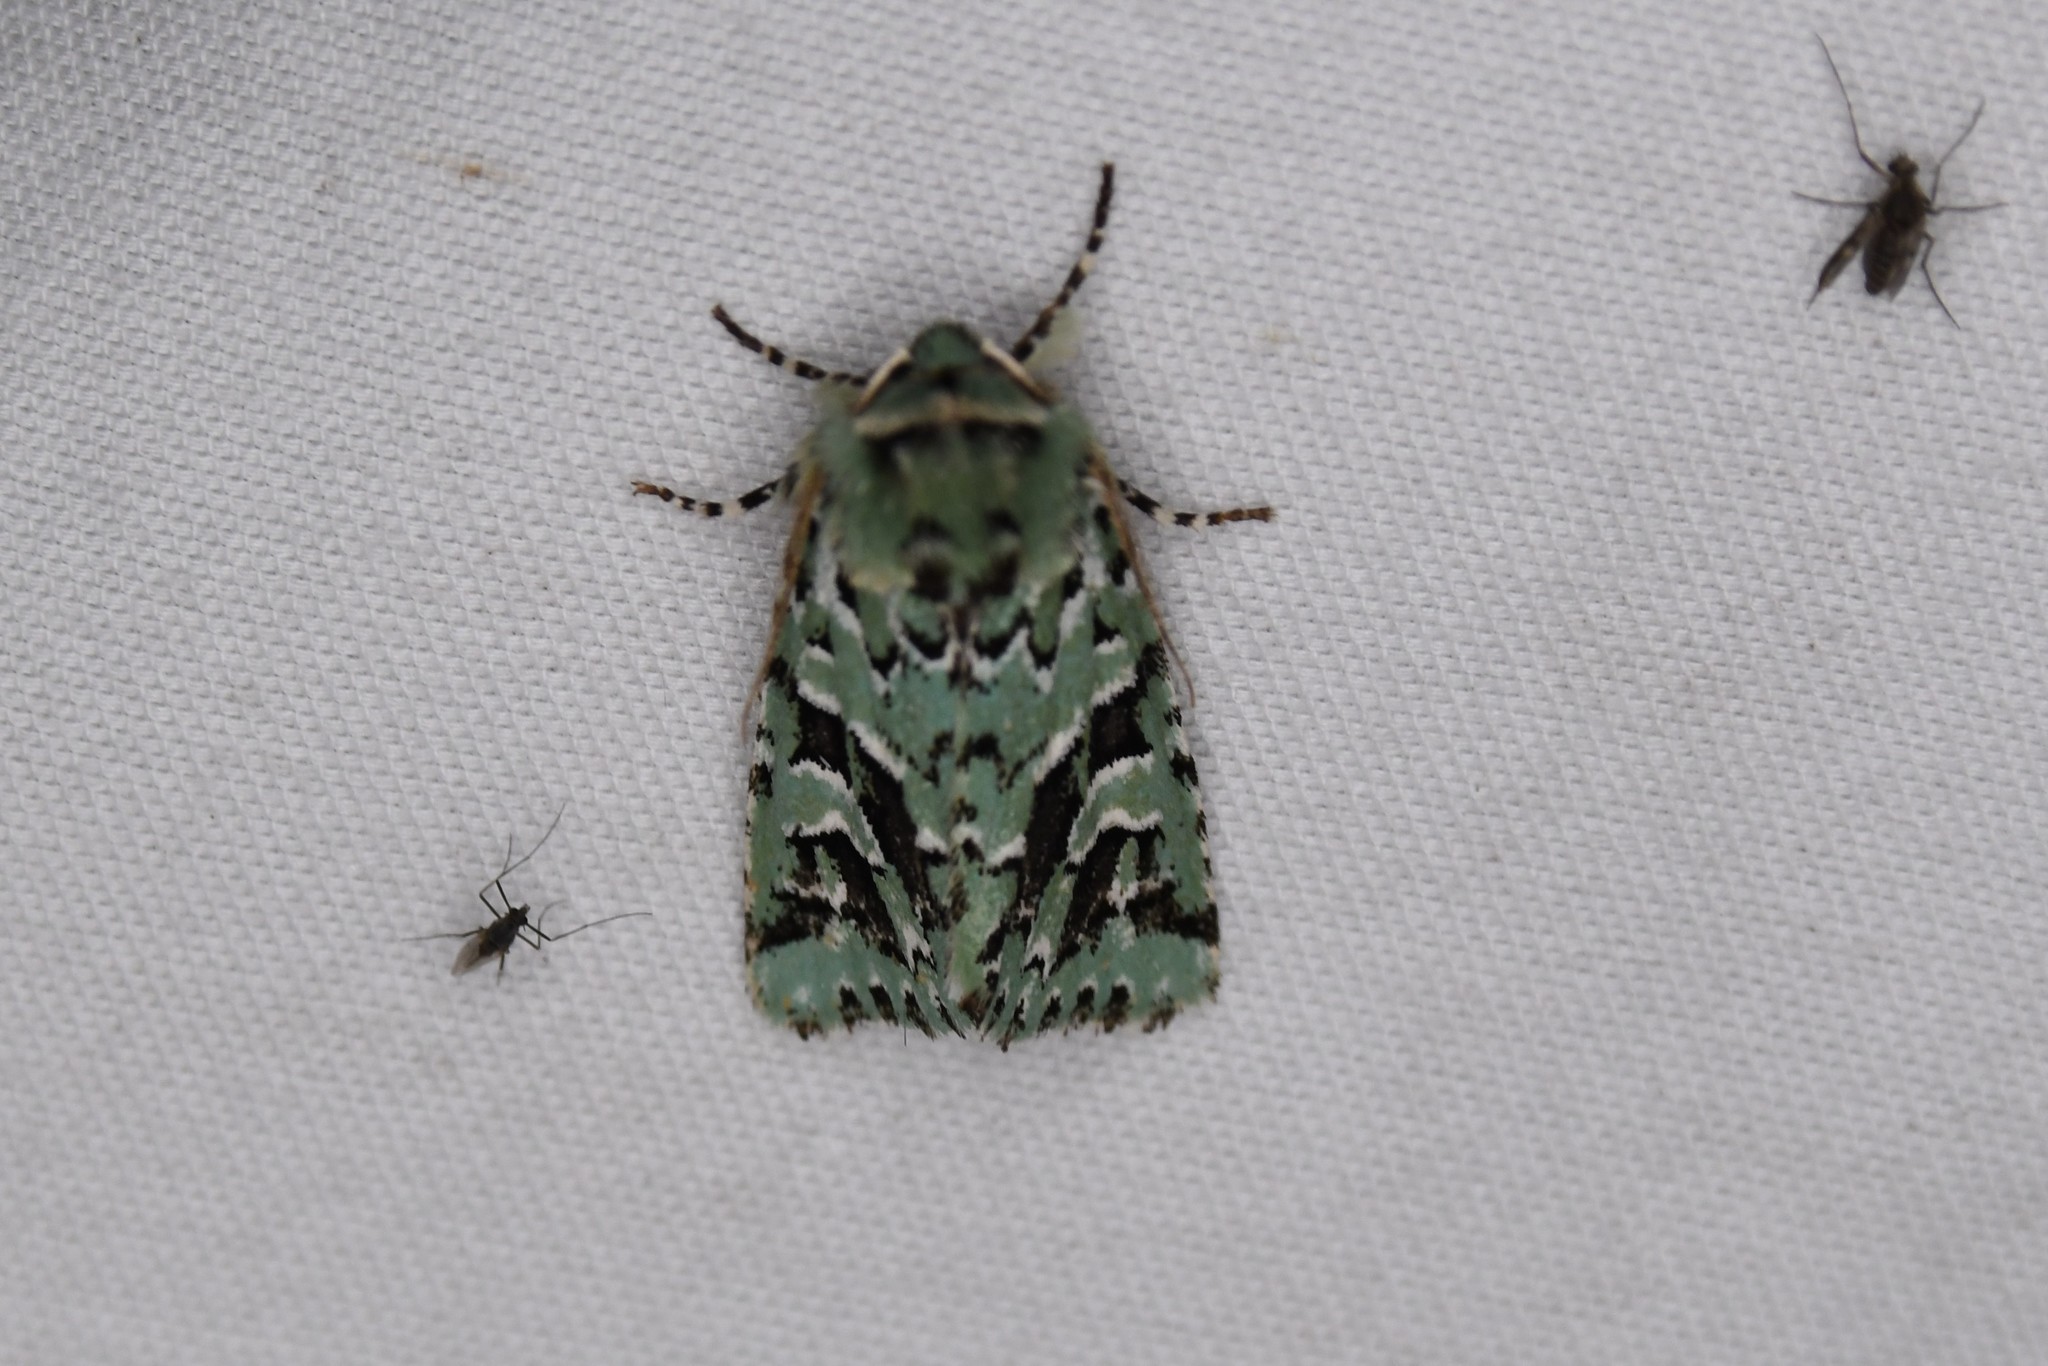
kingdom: Animalia
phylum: Arthropoda
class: Insecta
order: Lepidoptera
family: Noctuidae
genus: Feralia
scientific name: Feralia comstocki
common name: Comstock's sallow
